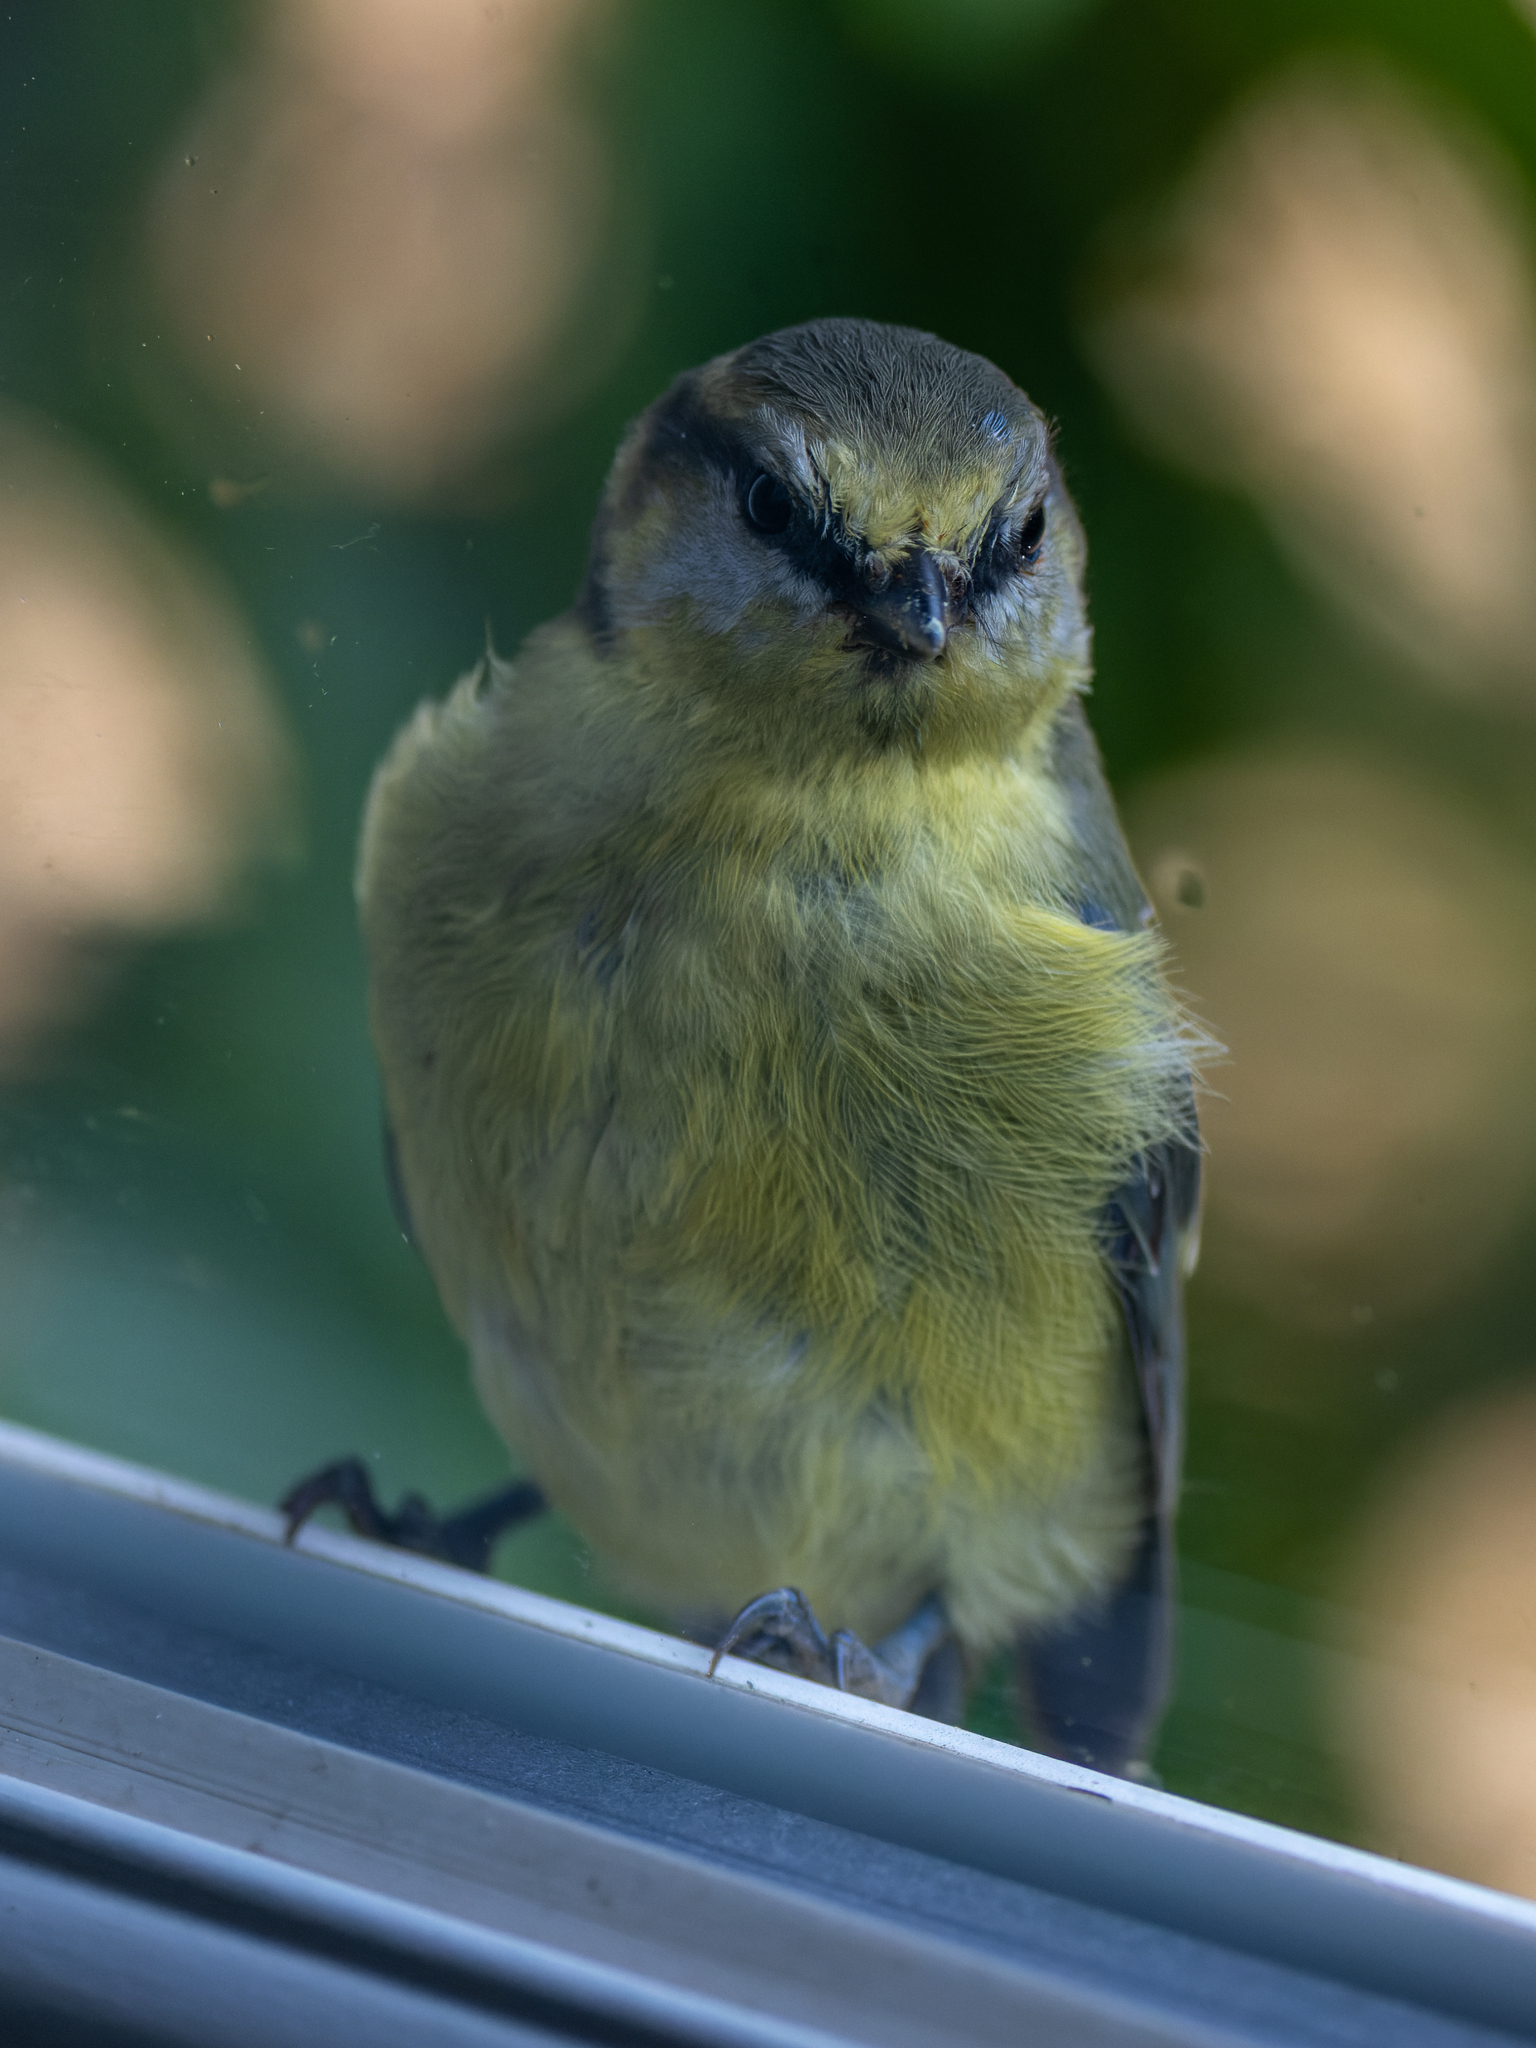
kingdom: Animalia
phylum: Chordata
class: Aves
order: Passeriformes
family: Paridae
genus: Cyanistes
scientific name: Cyanistes caeruleus
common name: Eurasian blue tit
